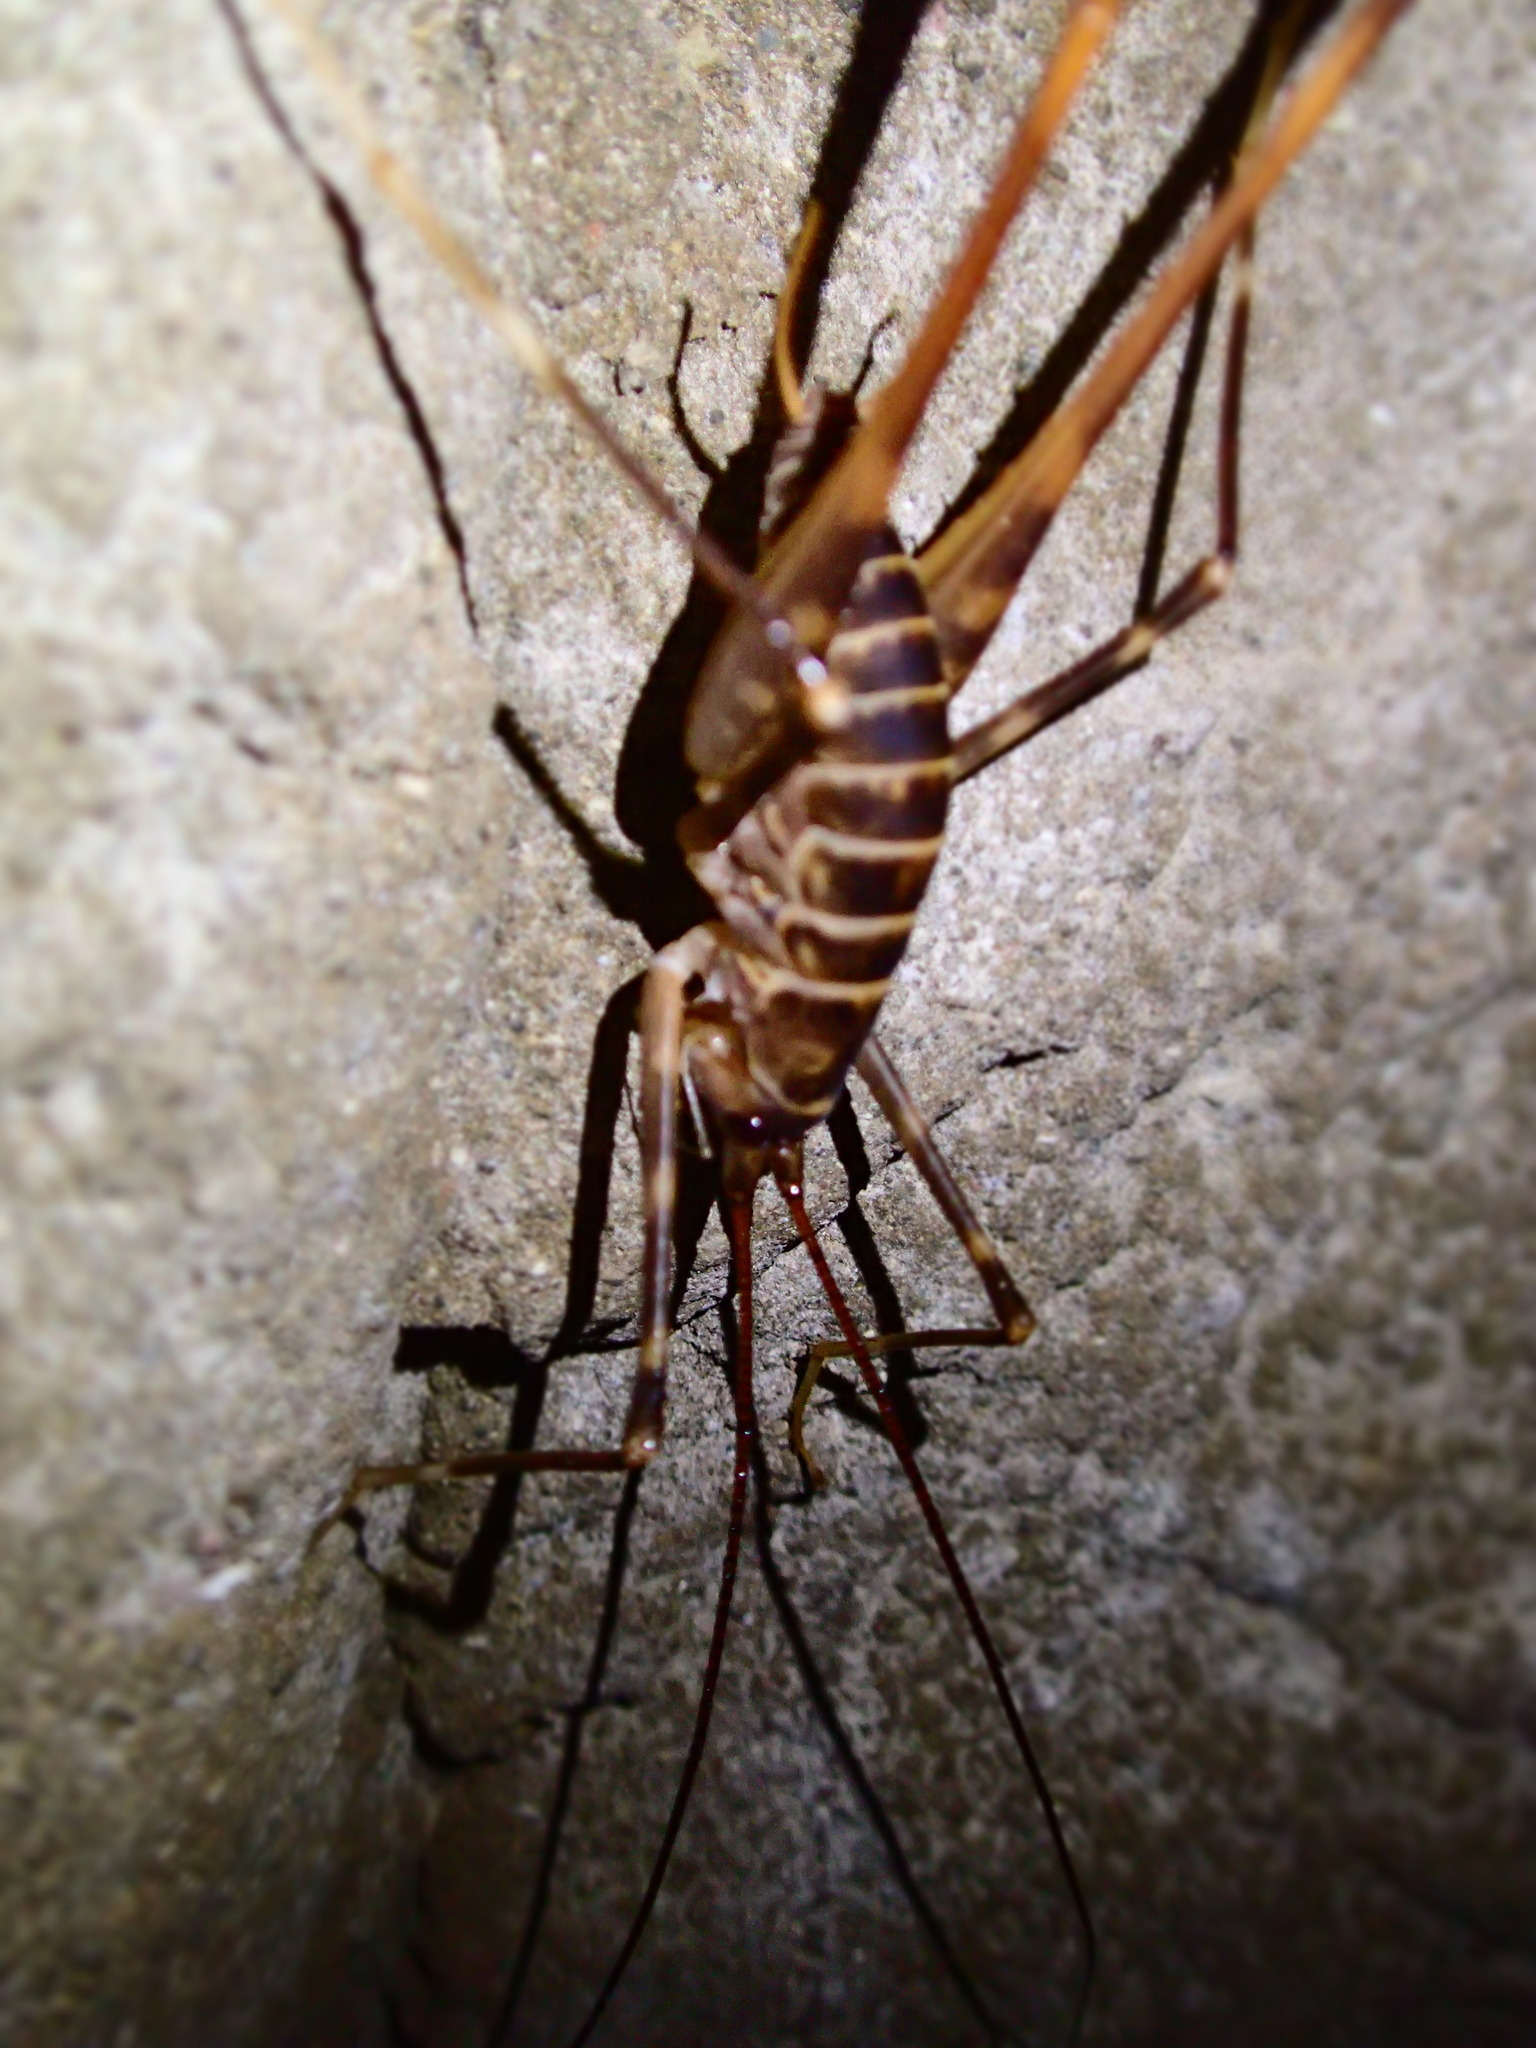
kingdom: Animalia
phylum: Arthropoda
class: Insecta
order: Orthoptera
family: Rhaphidophoridae
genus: Pachyrhamma
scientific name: Pachyrhamma acanthocera
